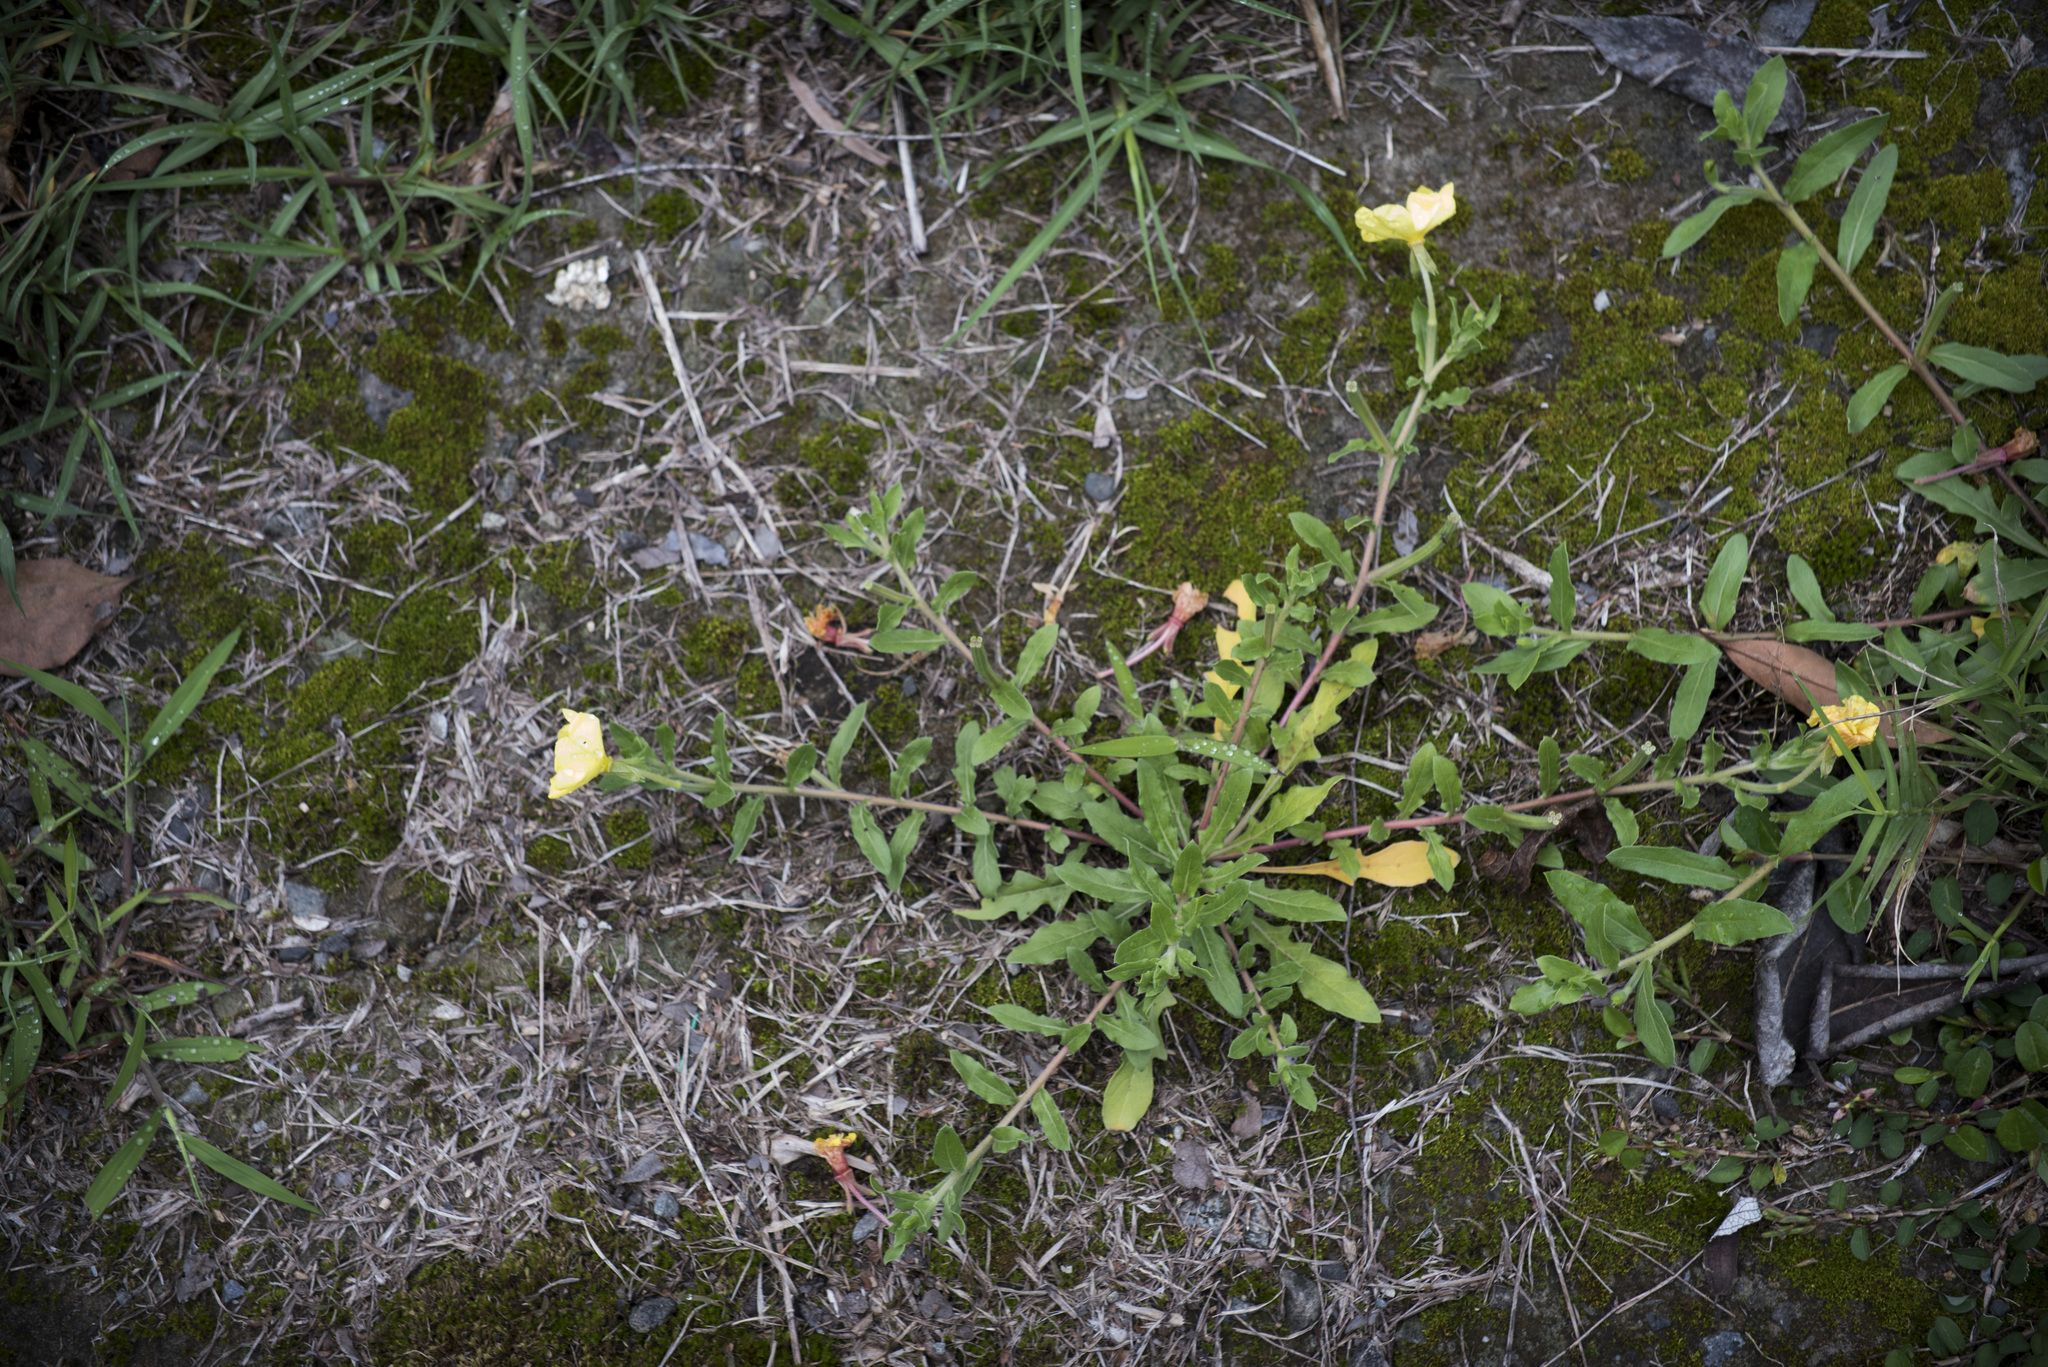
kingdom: Plantae
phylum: Tracheophyta
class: Magnoliopsida
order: Myrtales
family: Onagraceae
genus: Oenothera
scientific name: Oenothera laciniata
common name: Cut-leaved evening-primrose
